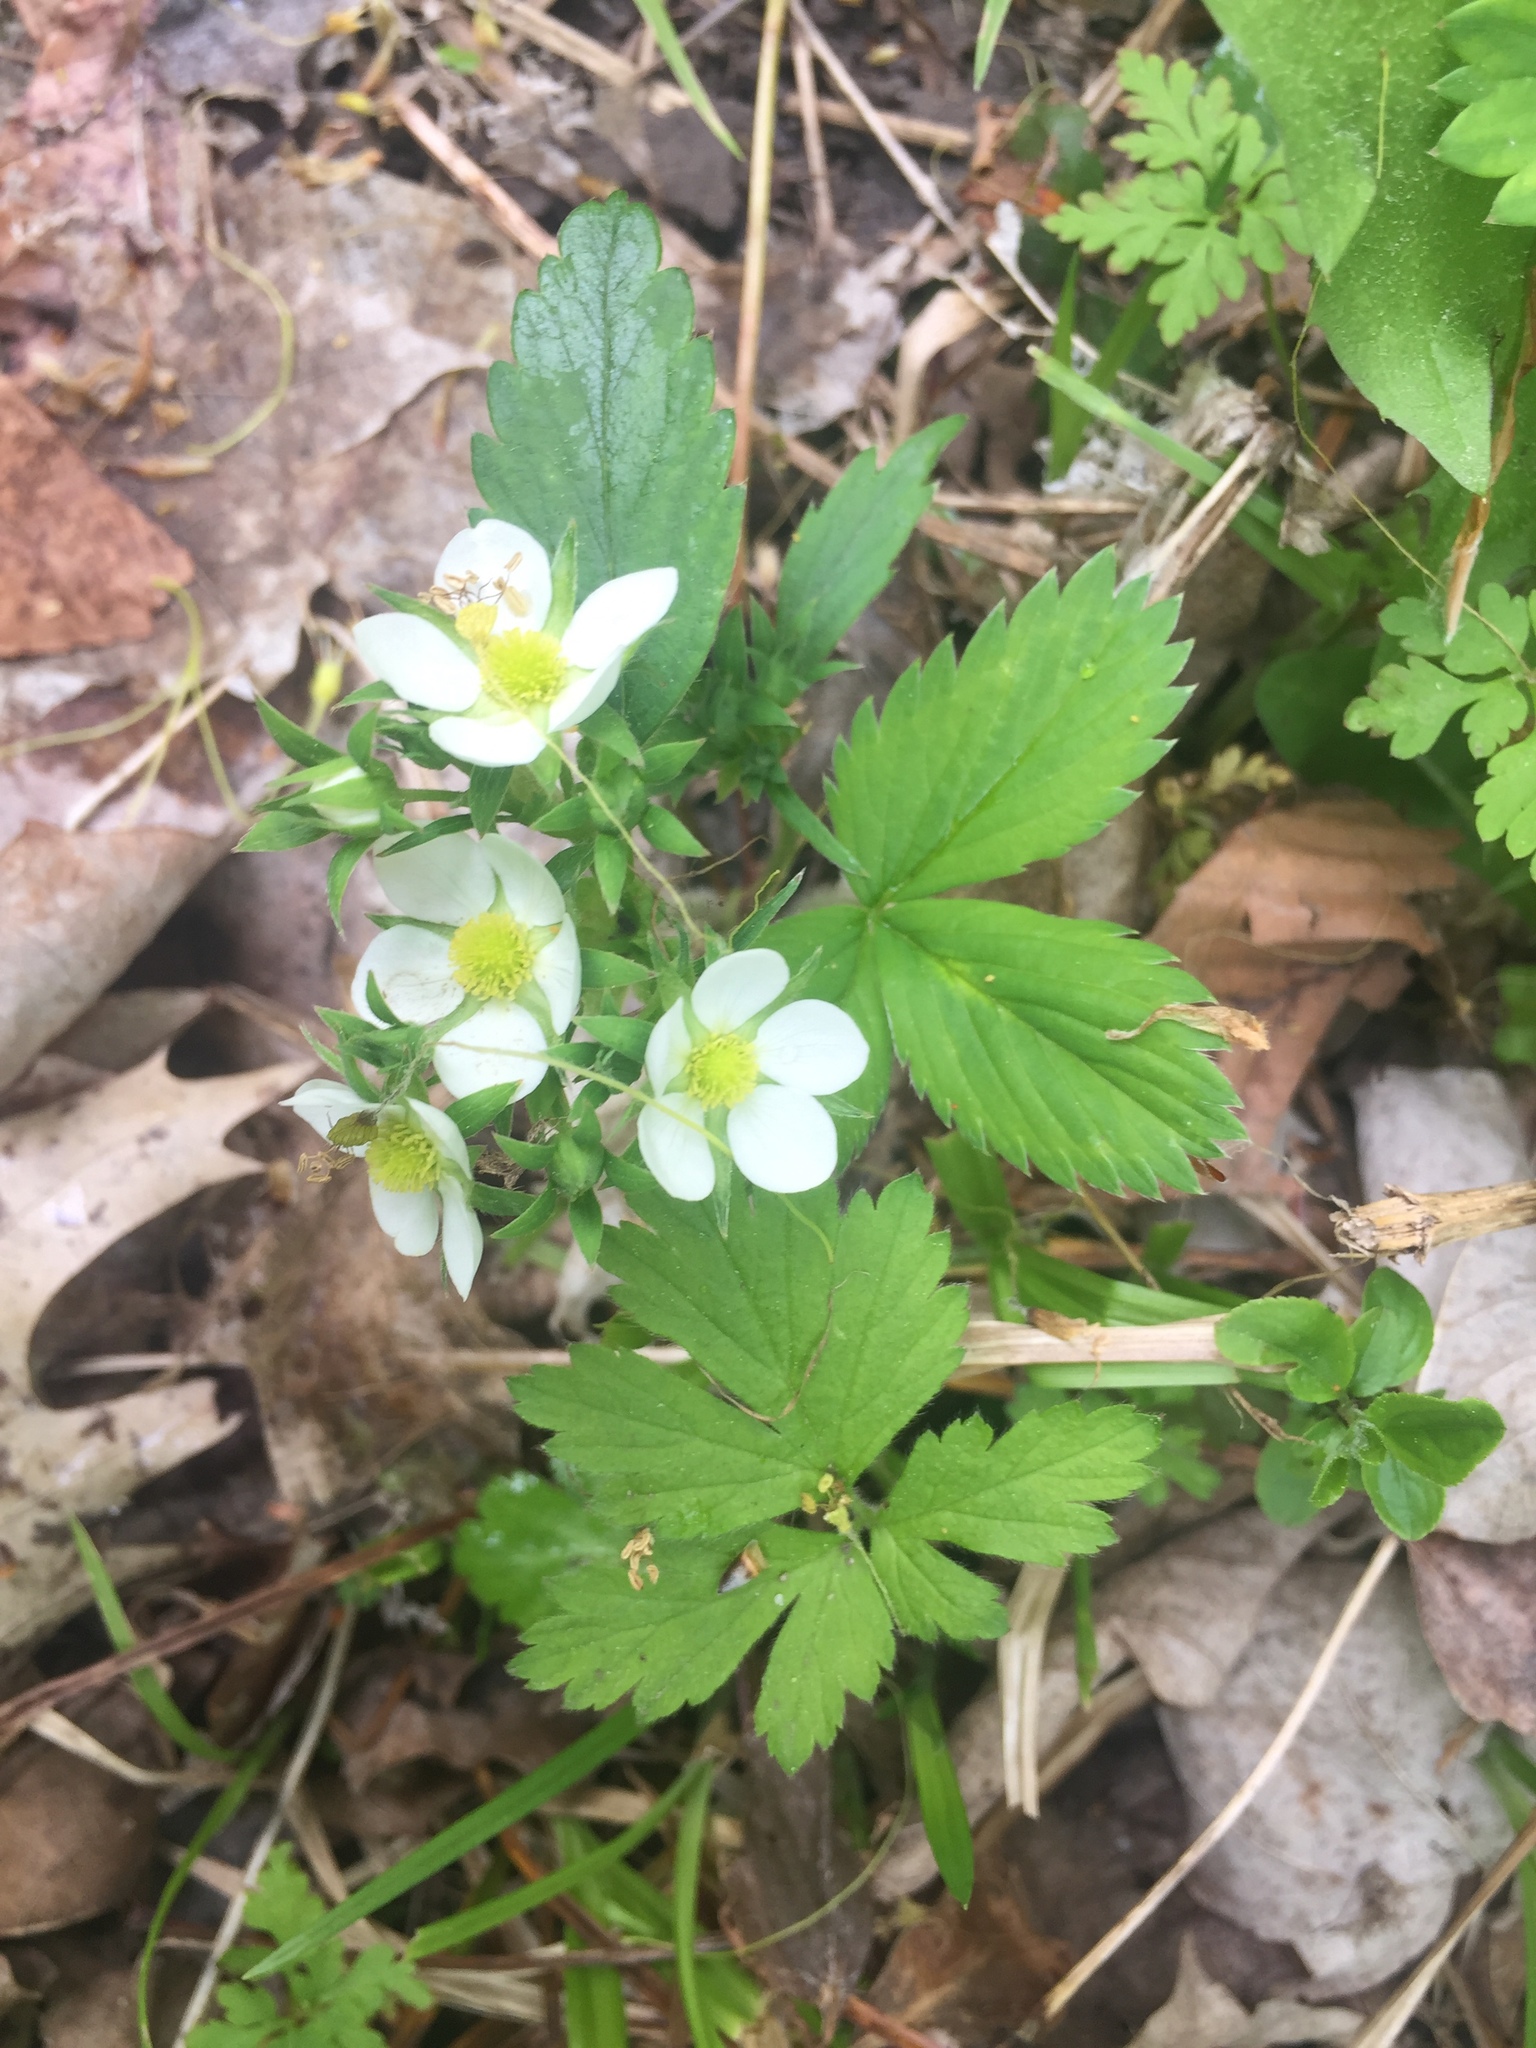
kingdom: Plantae
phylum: Tracheophyta
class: Magnoliopsida
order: Rosales
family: Rosaceae
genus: Fragaria
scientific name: Fragaria virginiana
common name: Thickleaved wild strawberry
